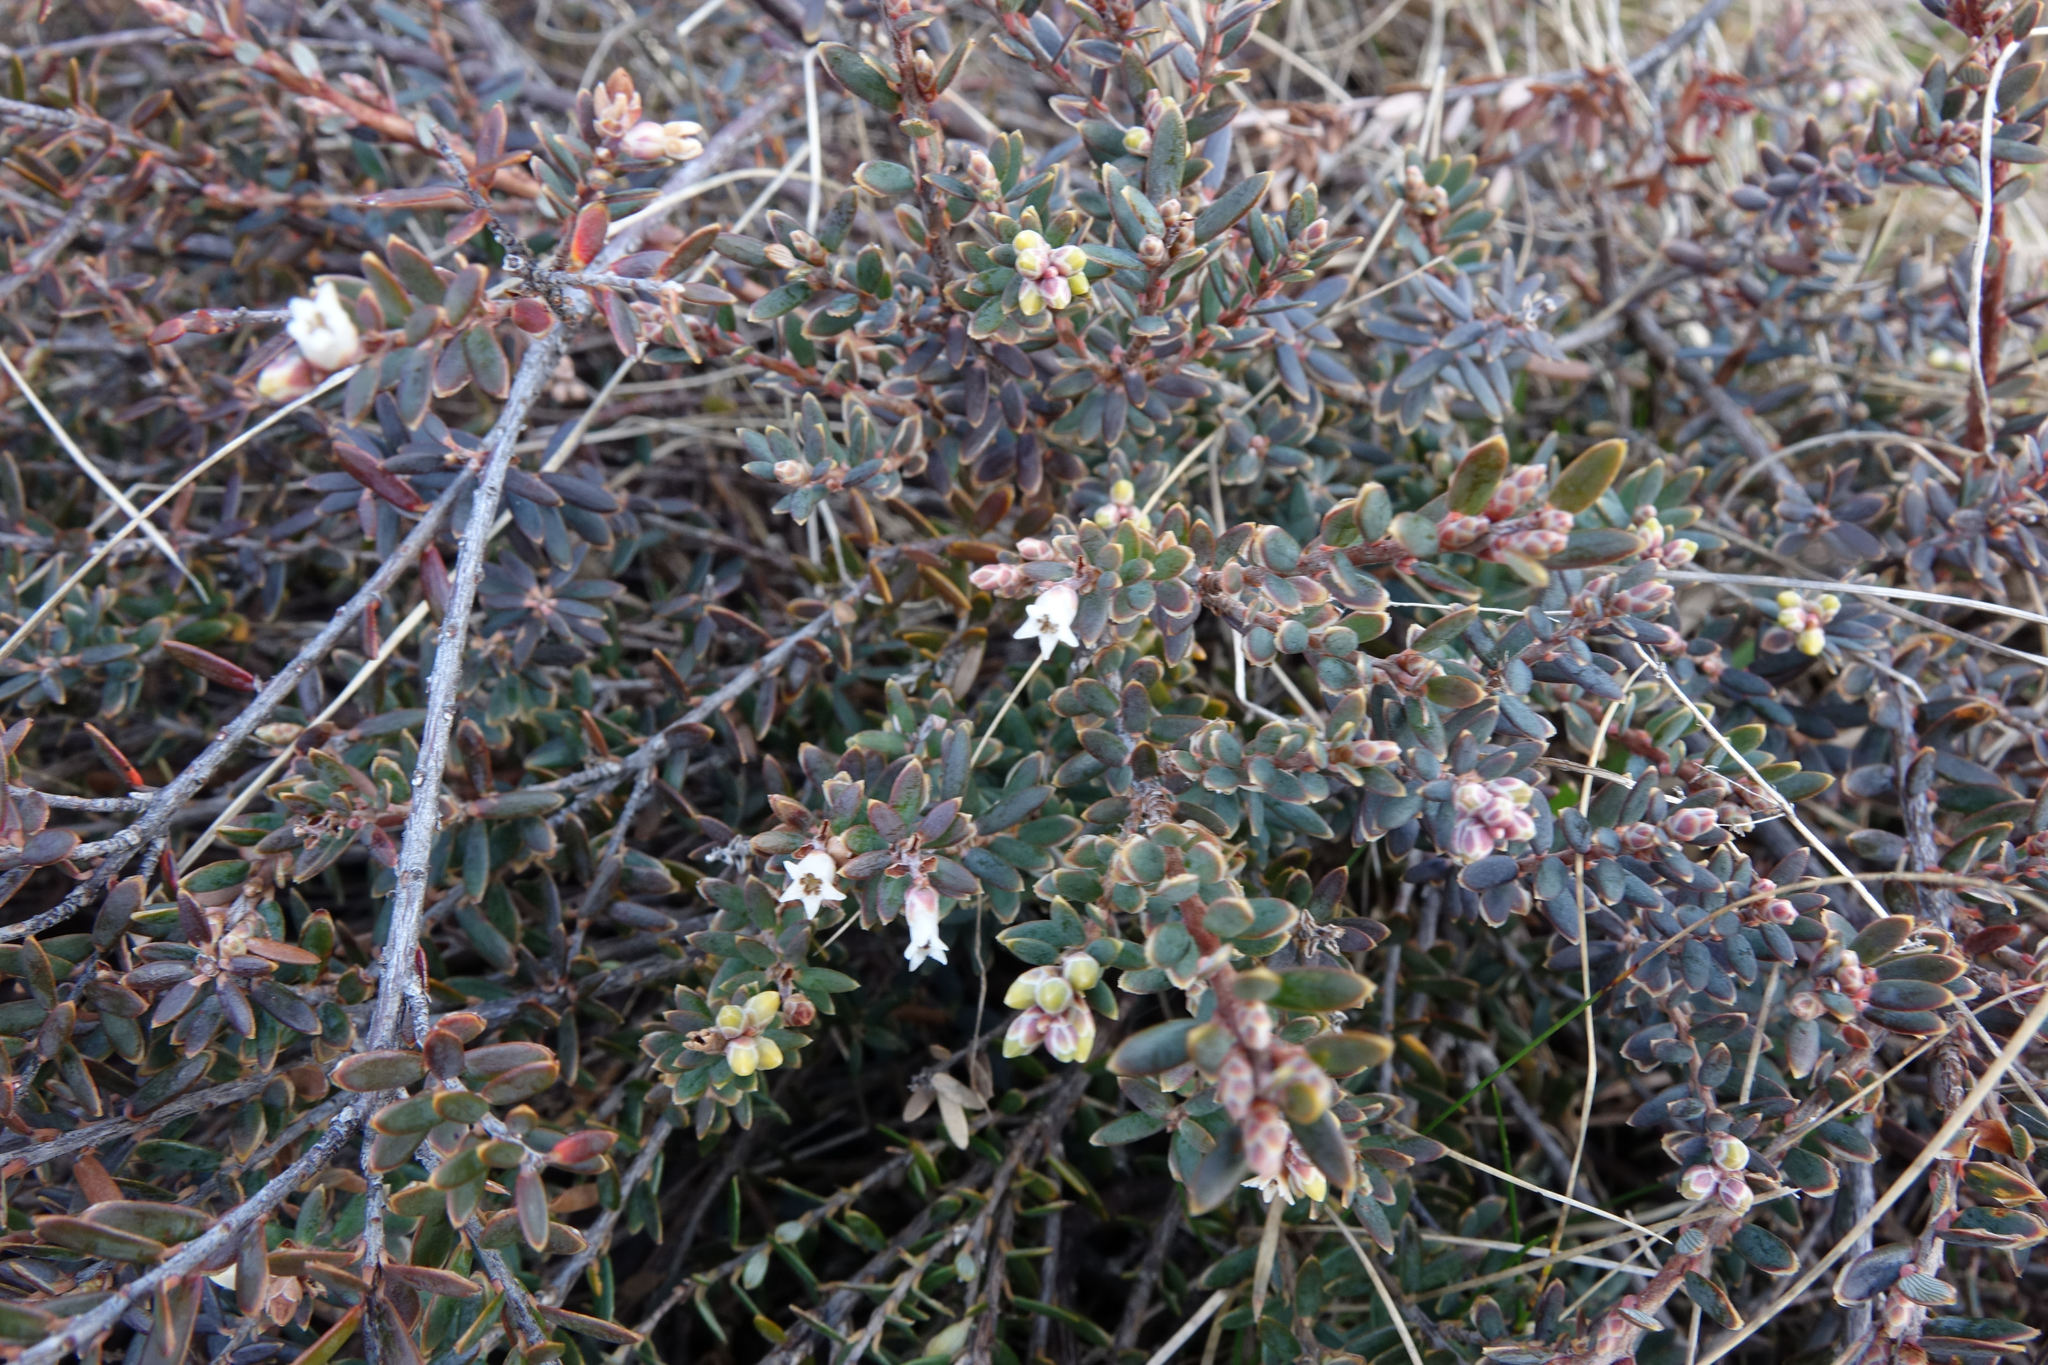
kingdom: Plantae
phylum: Tracheophyta
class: Magnoliopsida
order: Ericales
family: Ericaceae
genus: Acrothamnus
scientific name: Acrothamnus colensoi
